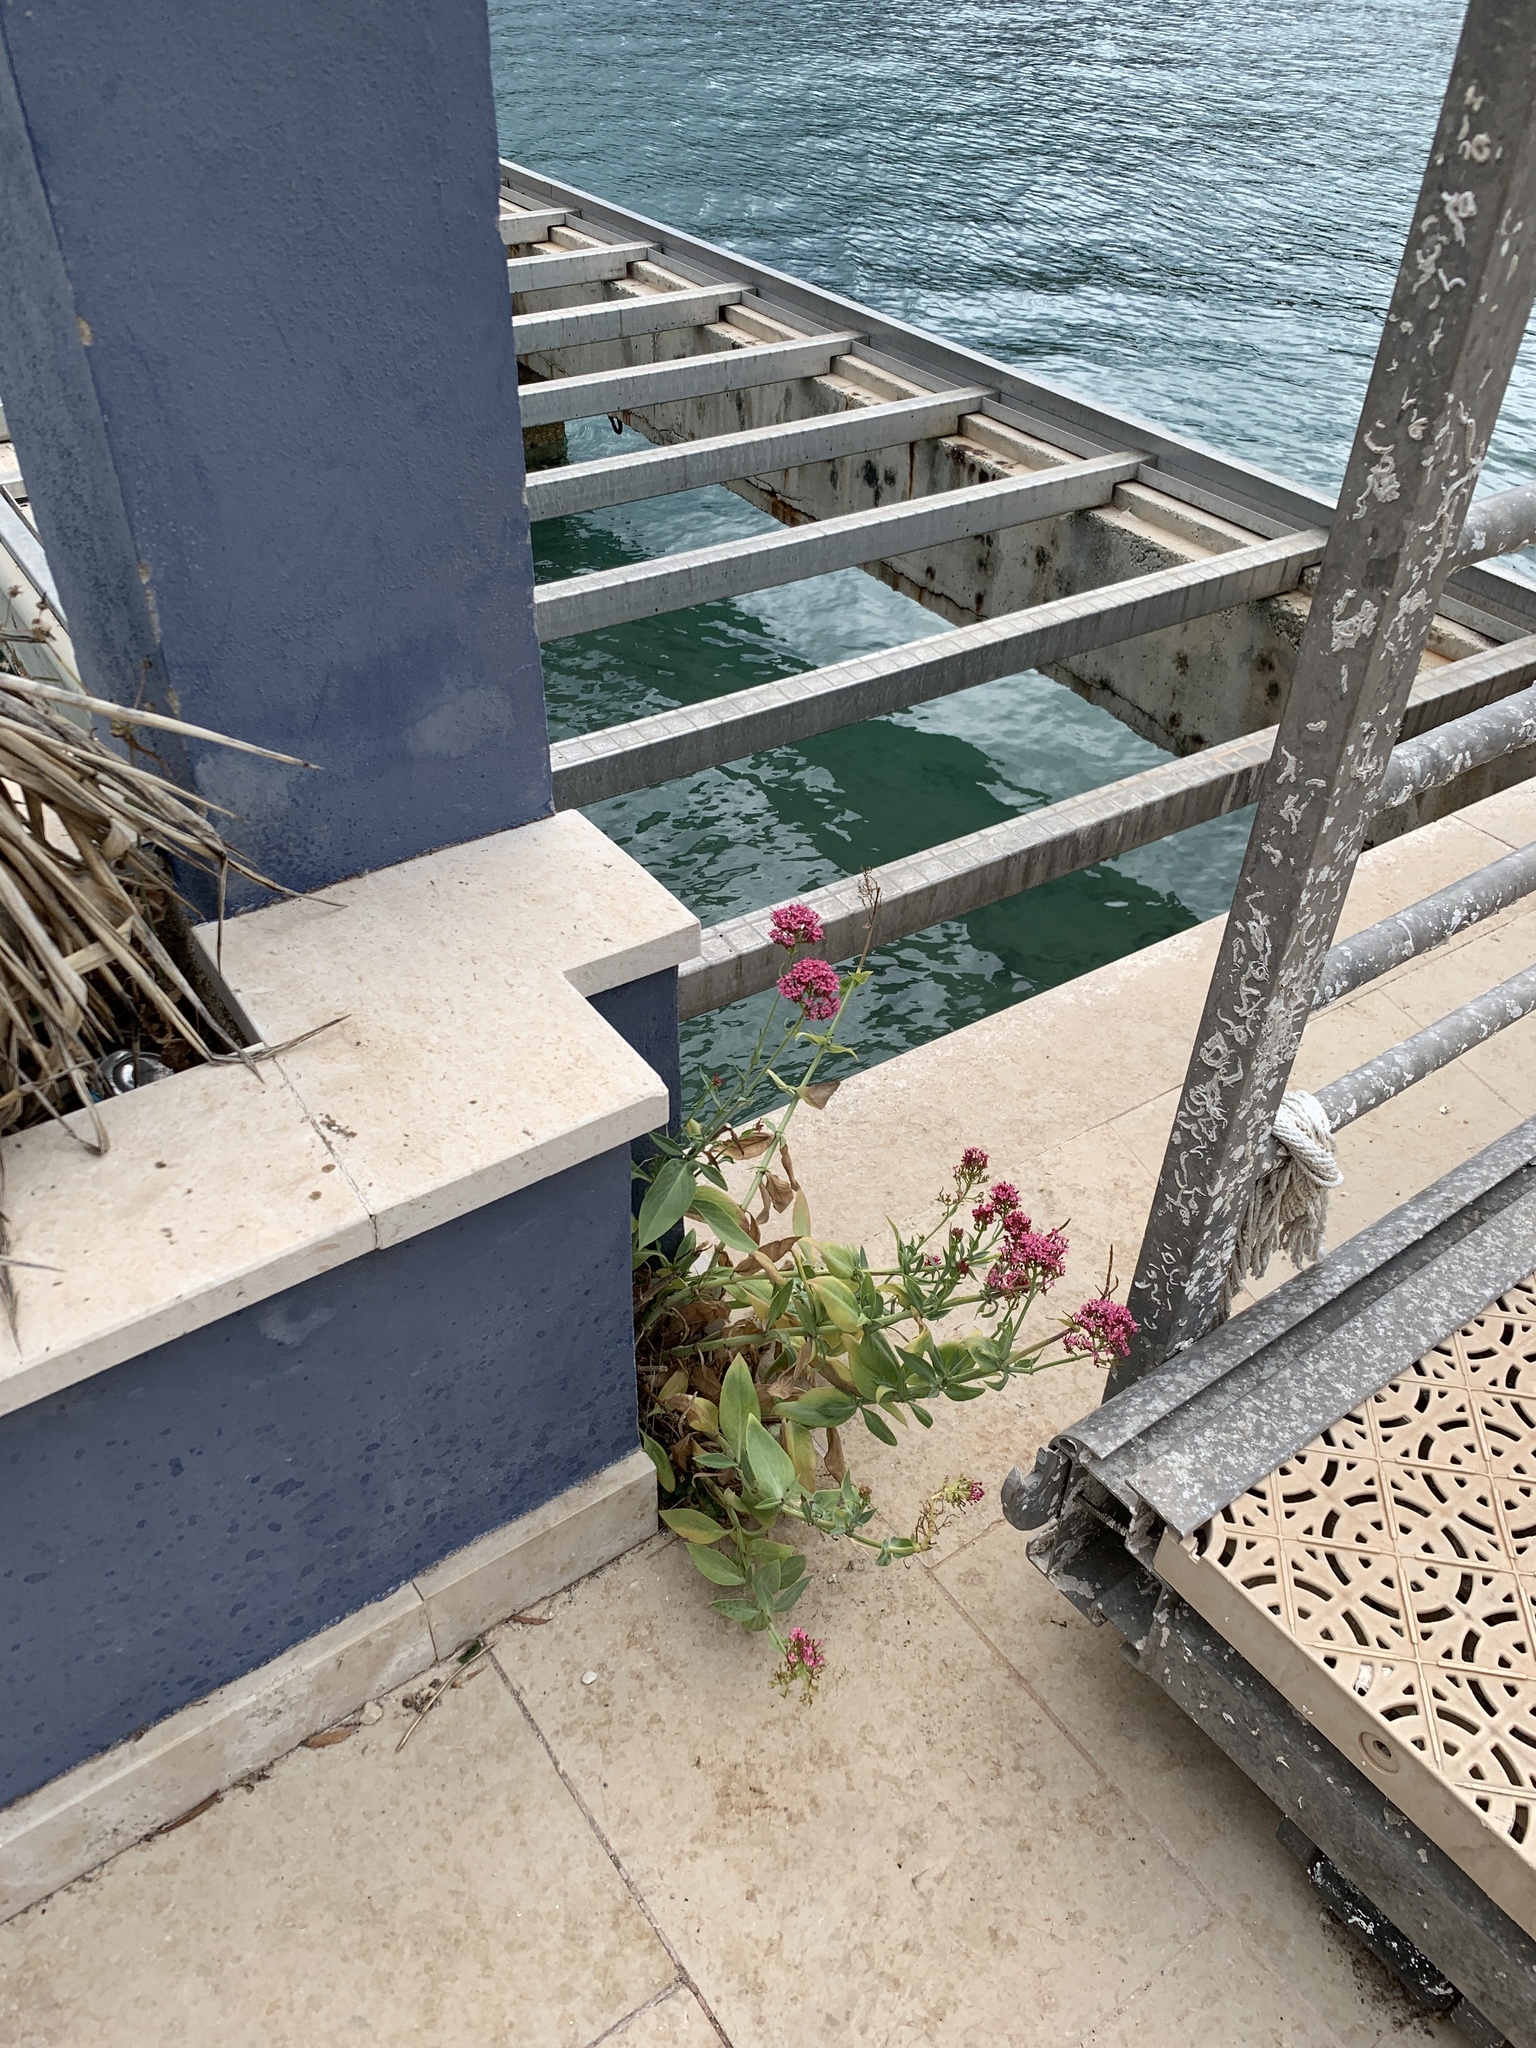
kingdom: Plantae
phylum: Tracheophyta
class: Magnoliopsida
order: Dipsacales
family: Caprifoliaceae
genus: Centranthus
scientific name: Centranthus ruber
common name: Red valerian
